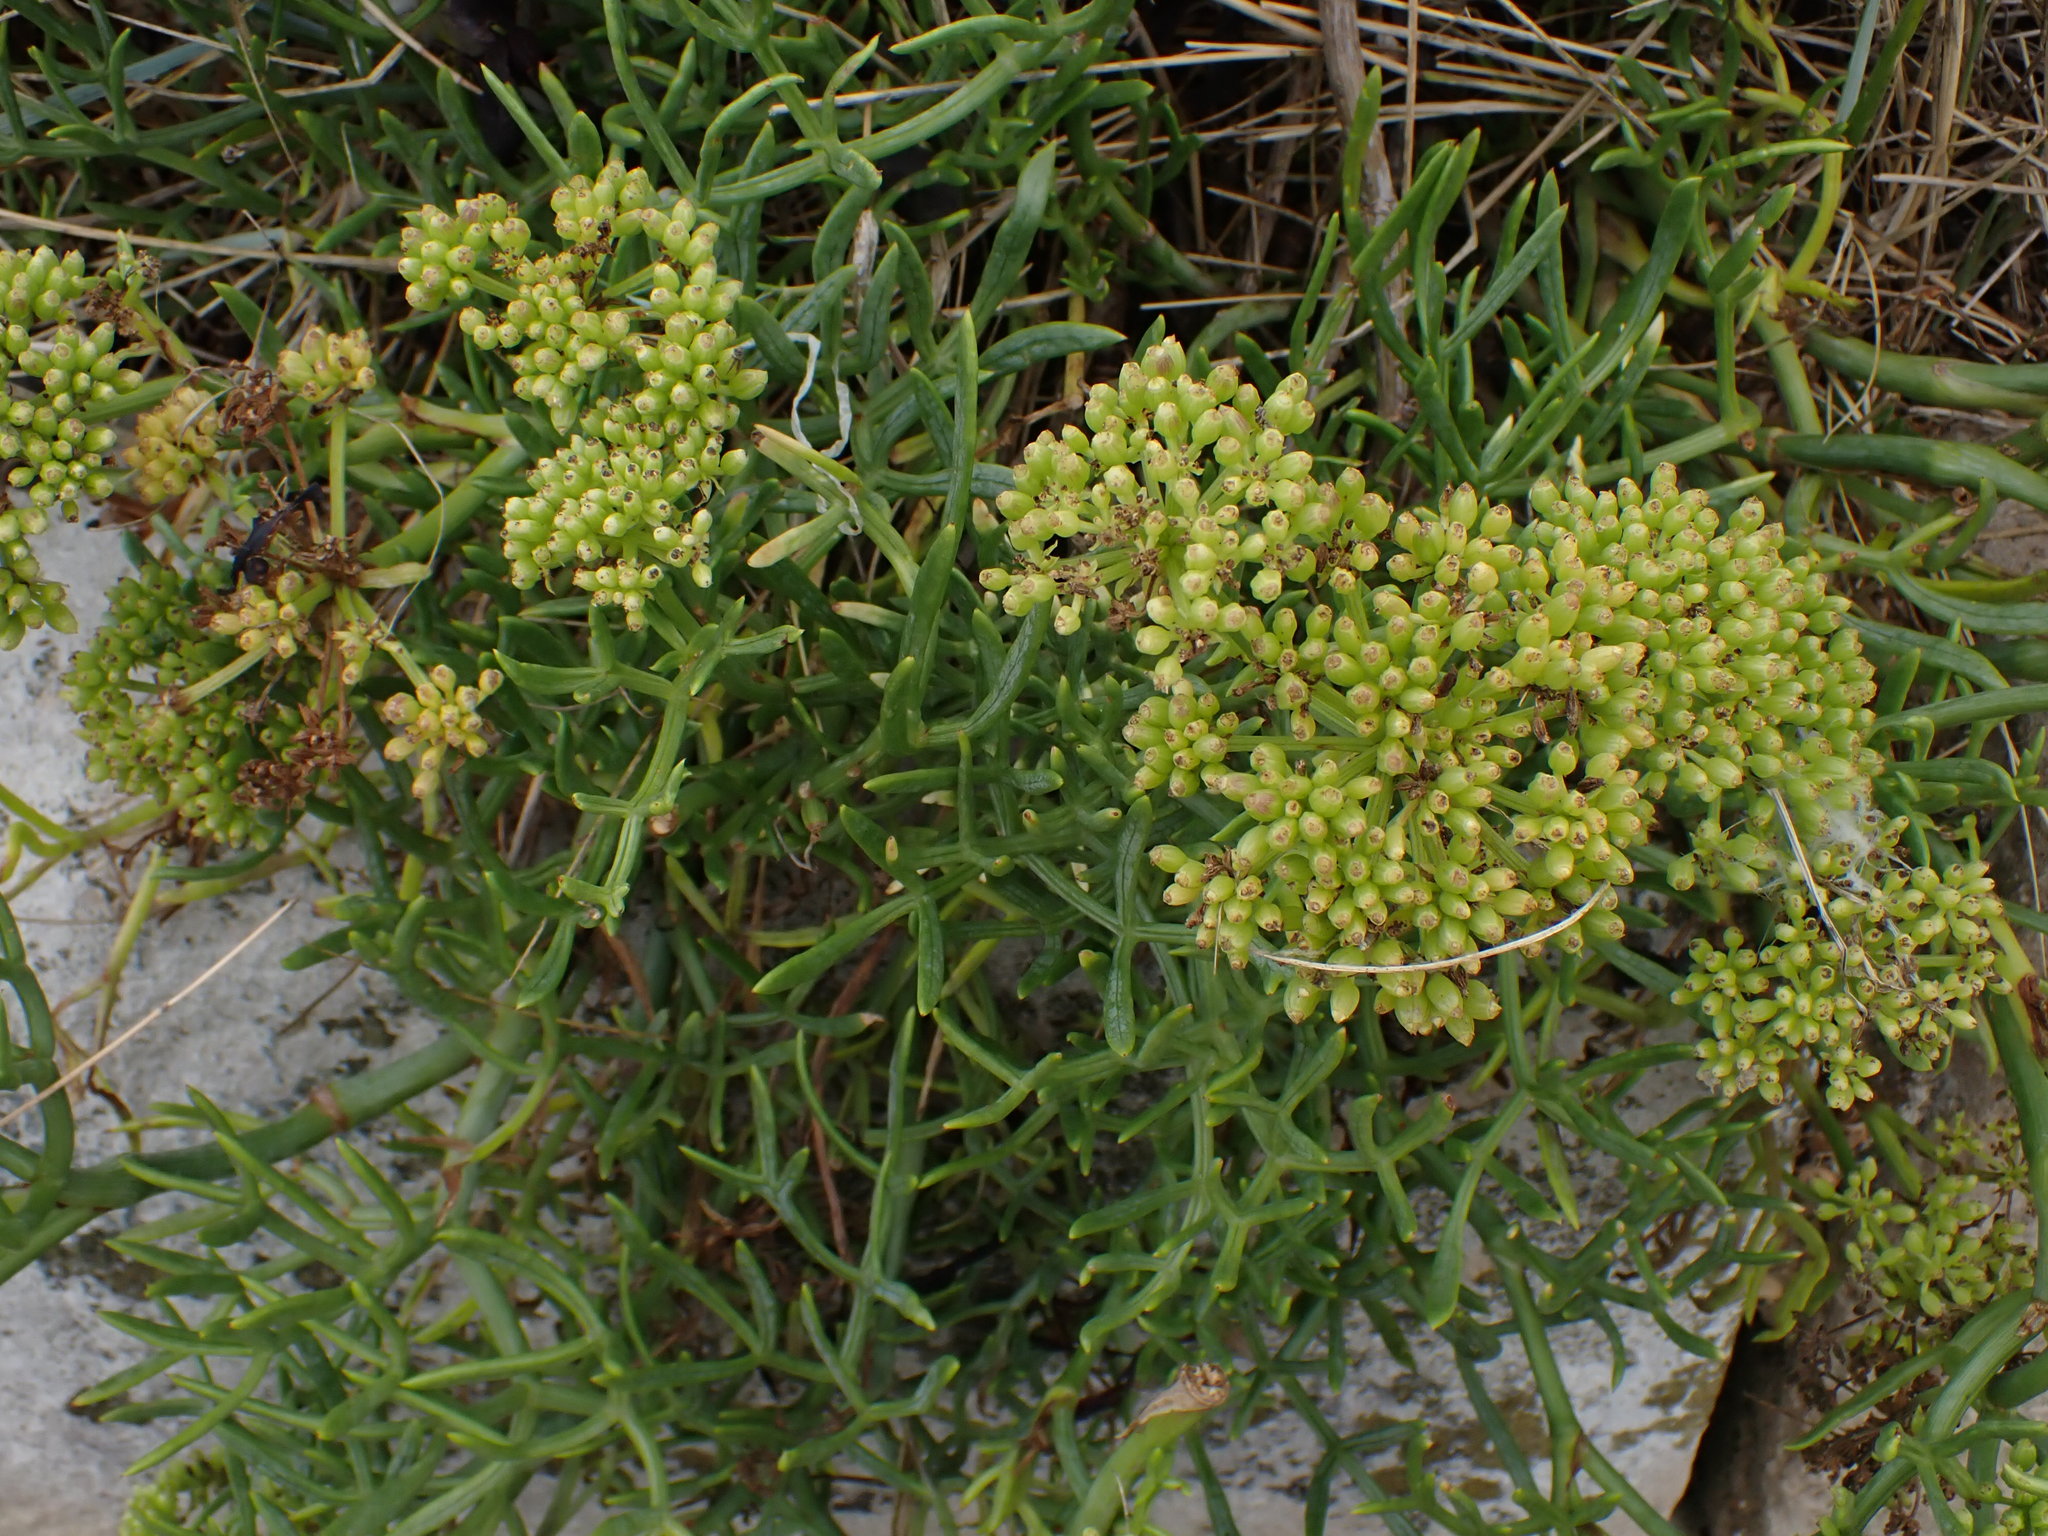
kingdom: Plantae
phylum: Tracheophyta
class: Magnoliopsida
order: Apiales
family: Apiaceae
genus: Crithmum
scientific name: Crithmum maritimum
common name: Rock samphire
